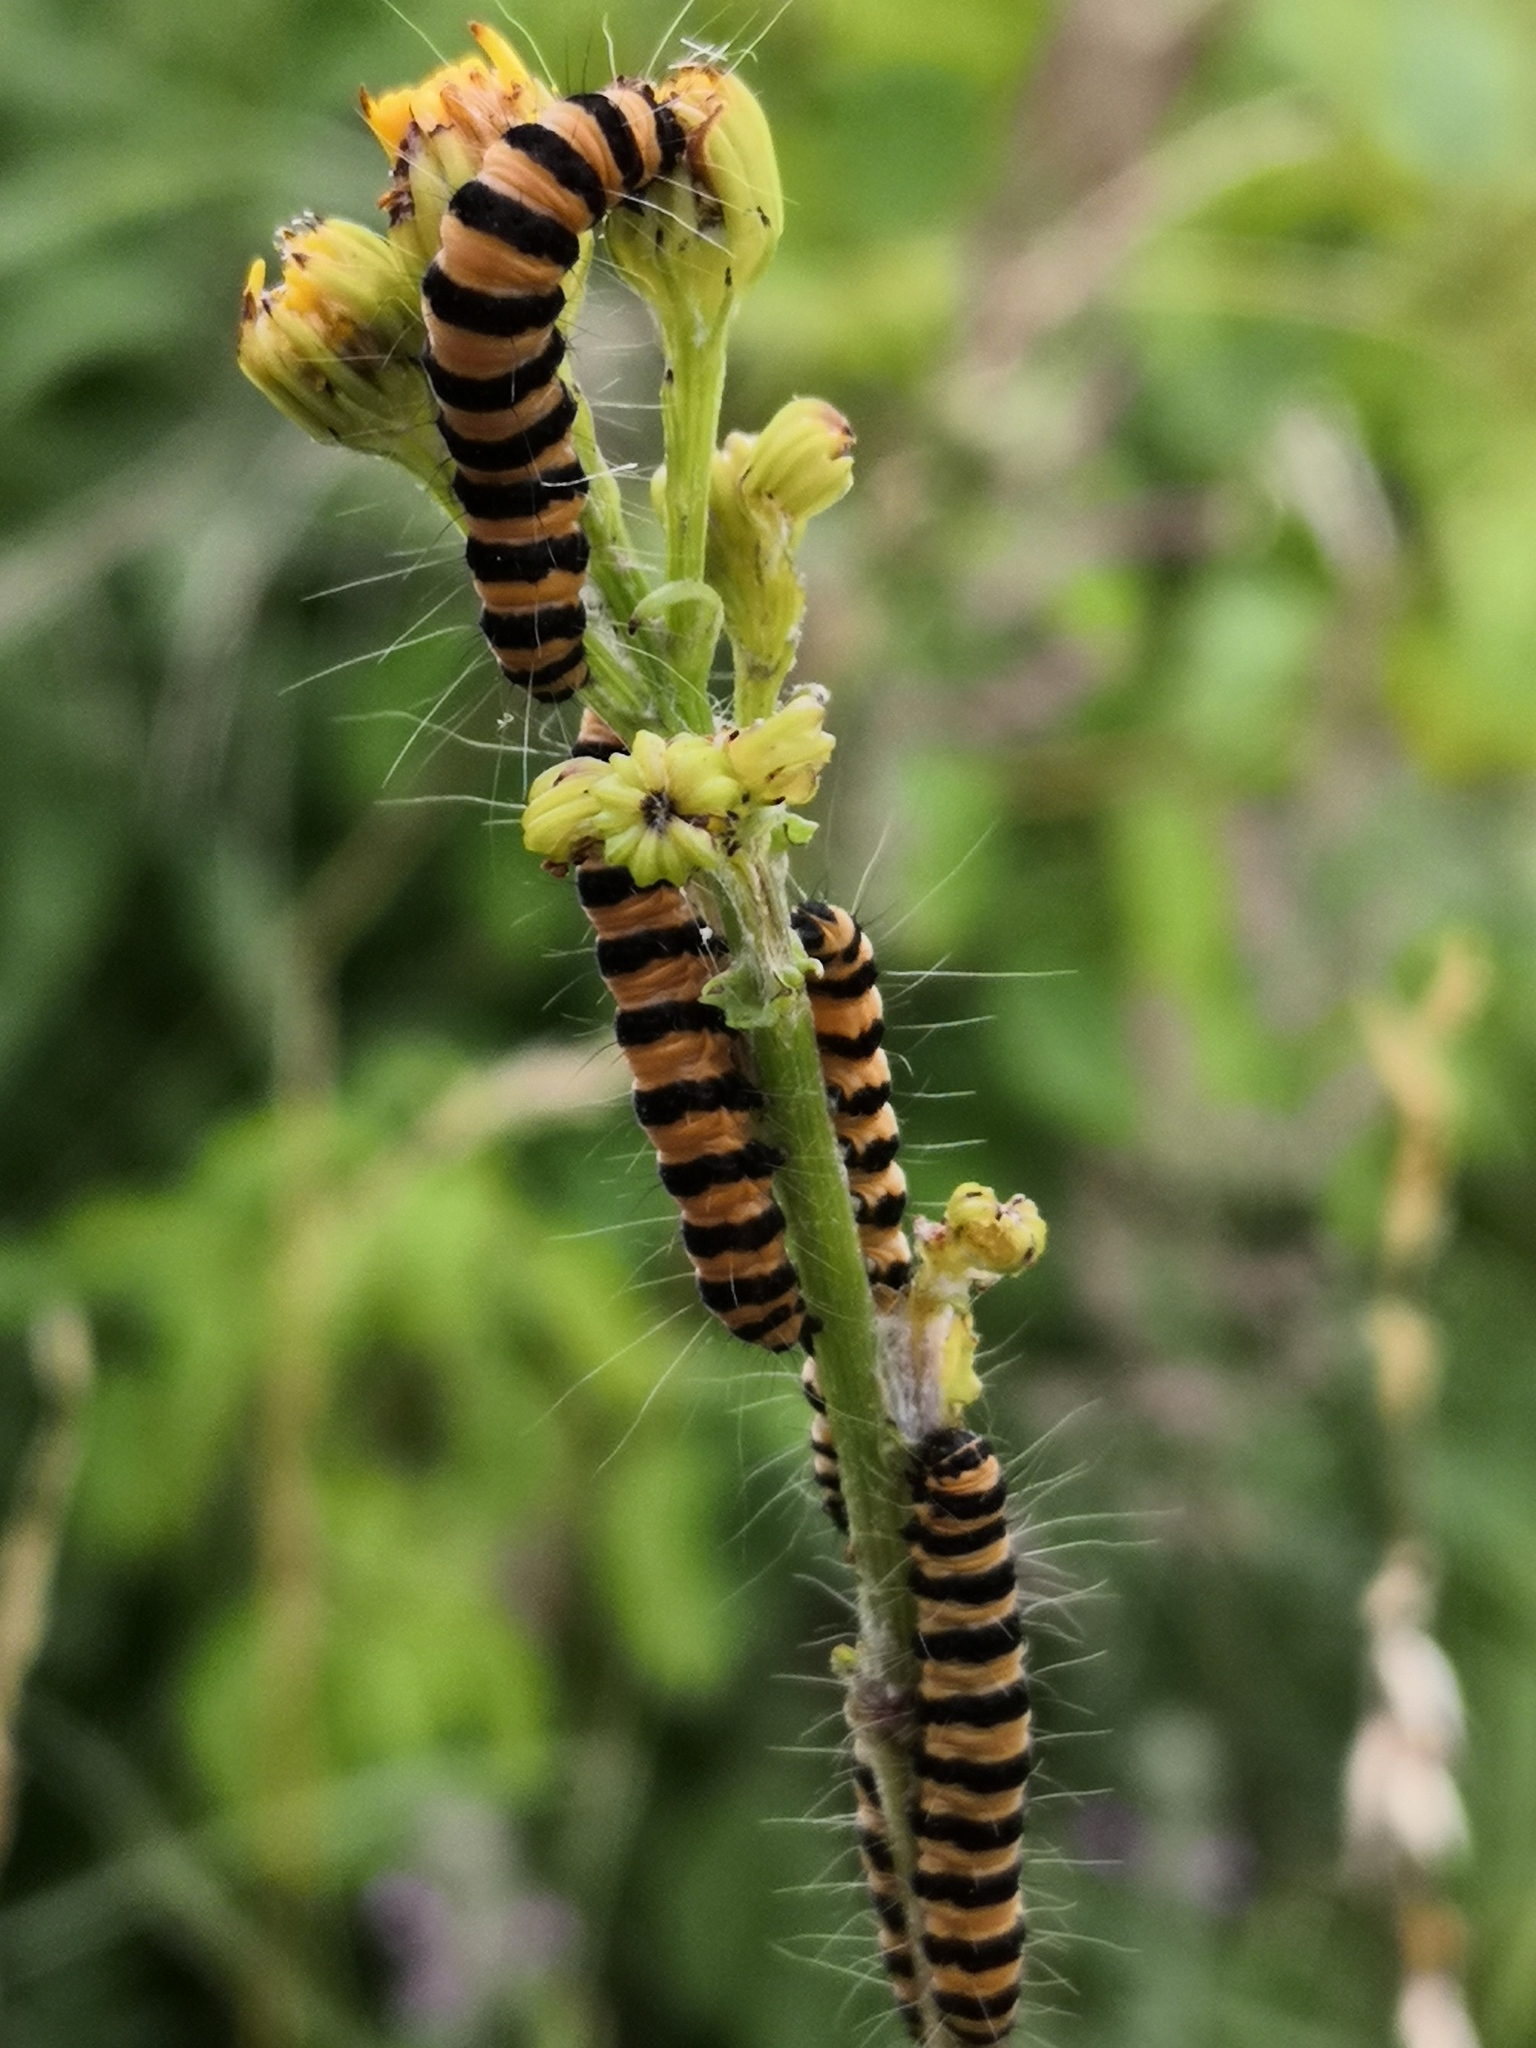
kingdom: Animalia
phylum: Arthropoda
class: Insecta
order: Lepidoptera
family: Erebidae
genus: Tyria
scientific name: Tyria jacobaeae
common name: Cinnabar
